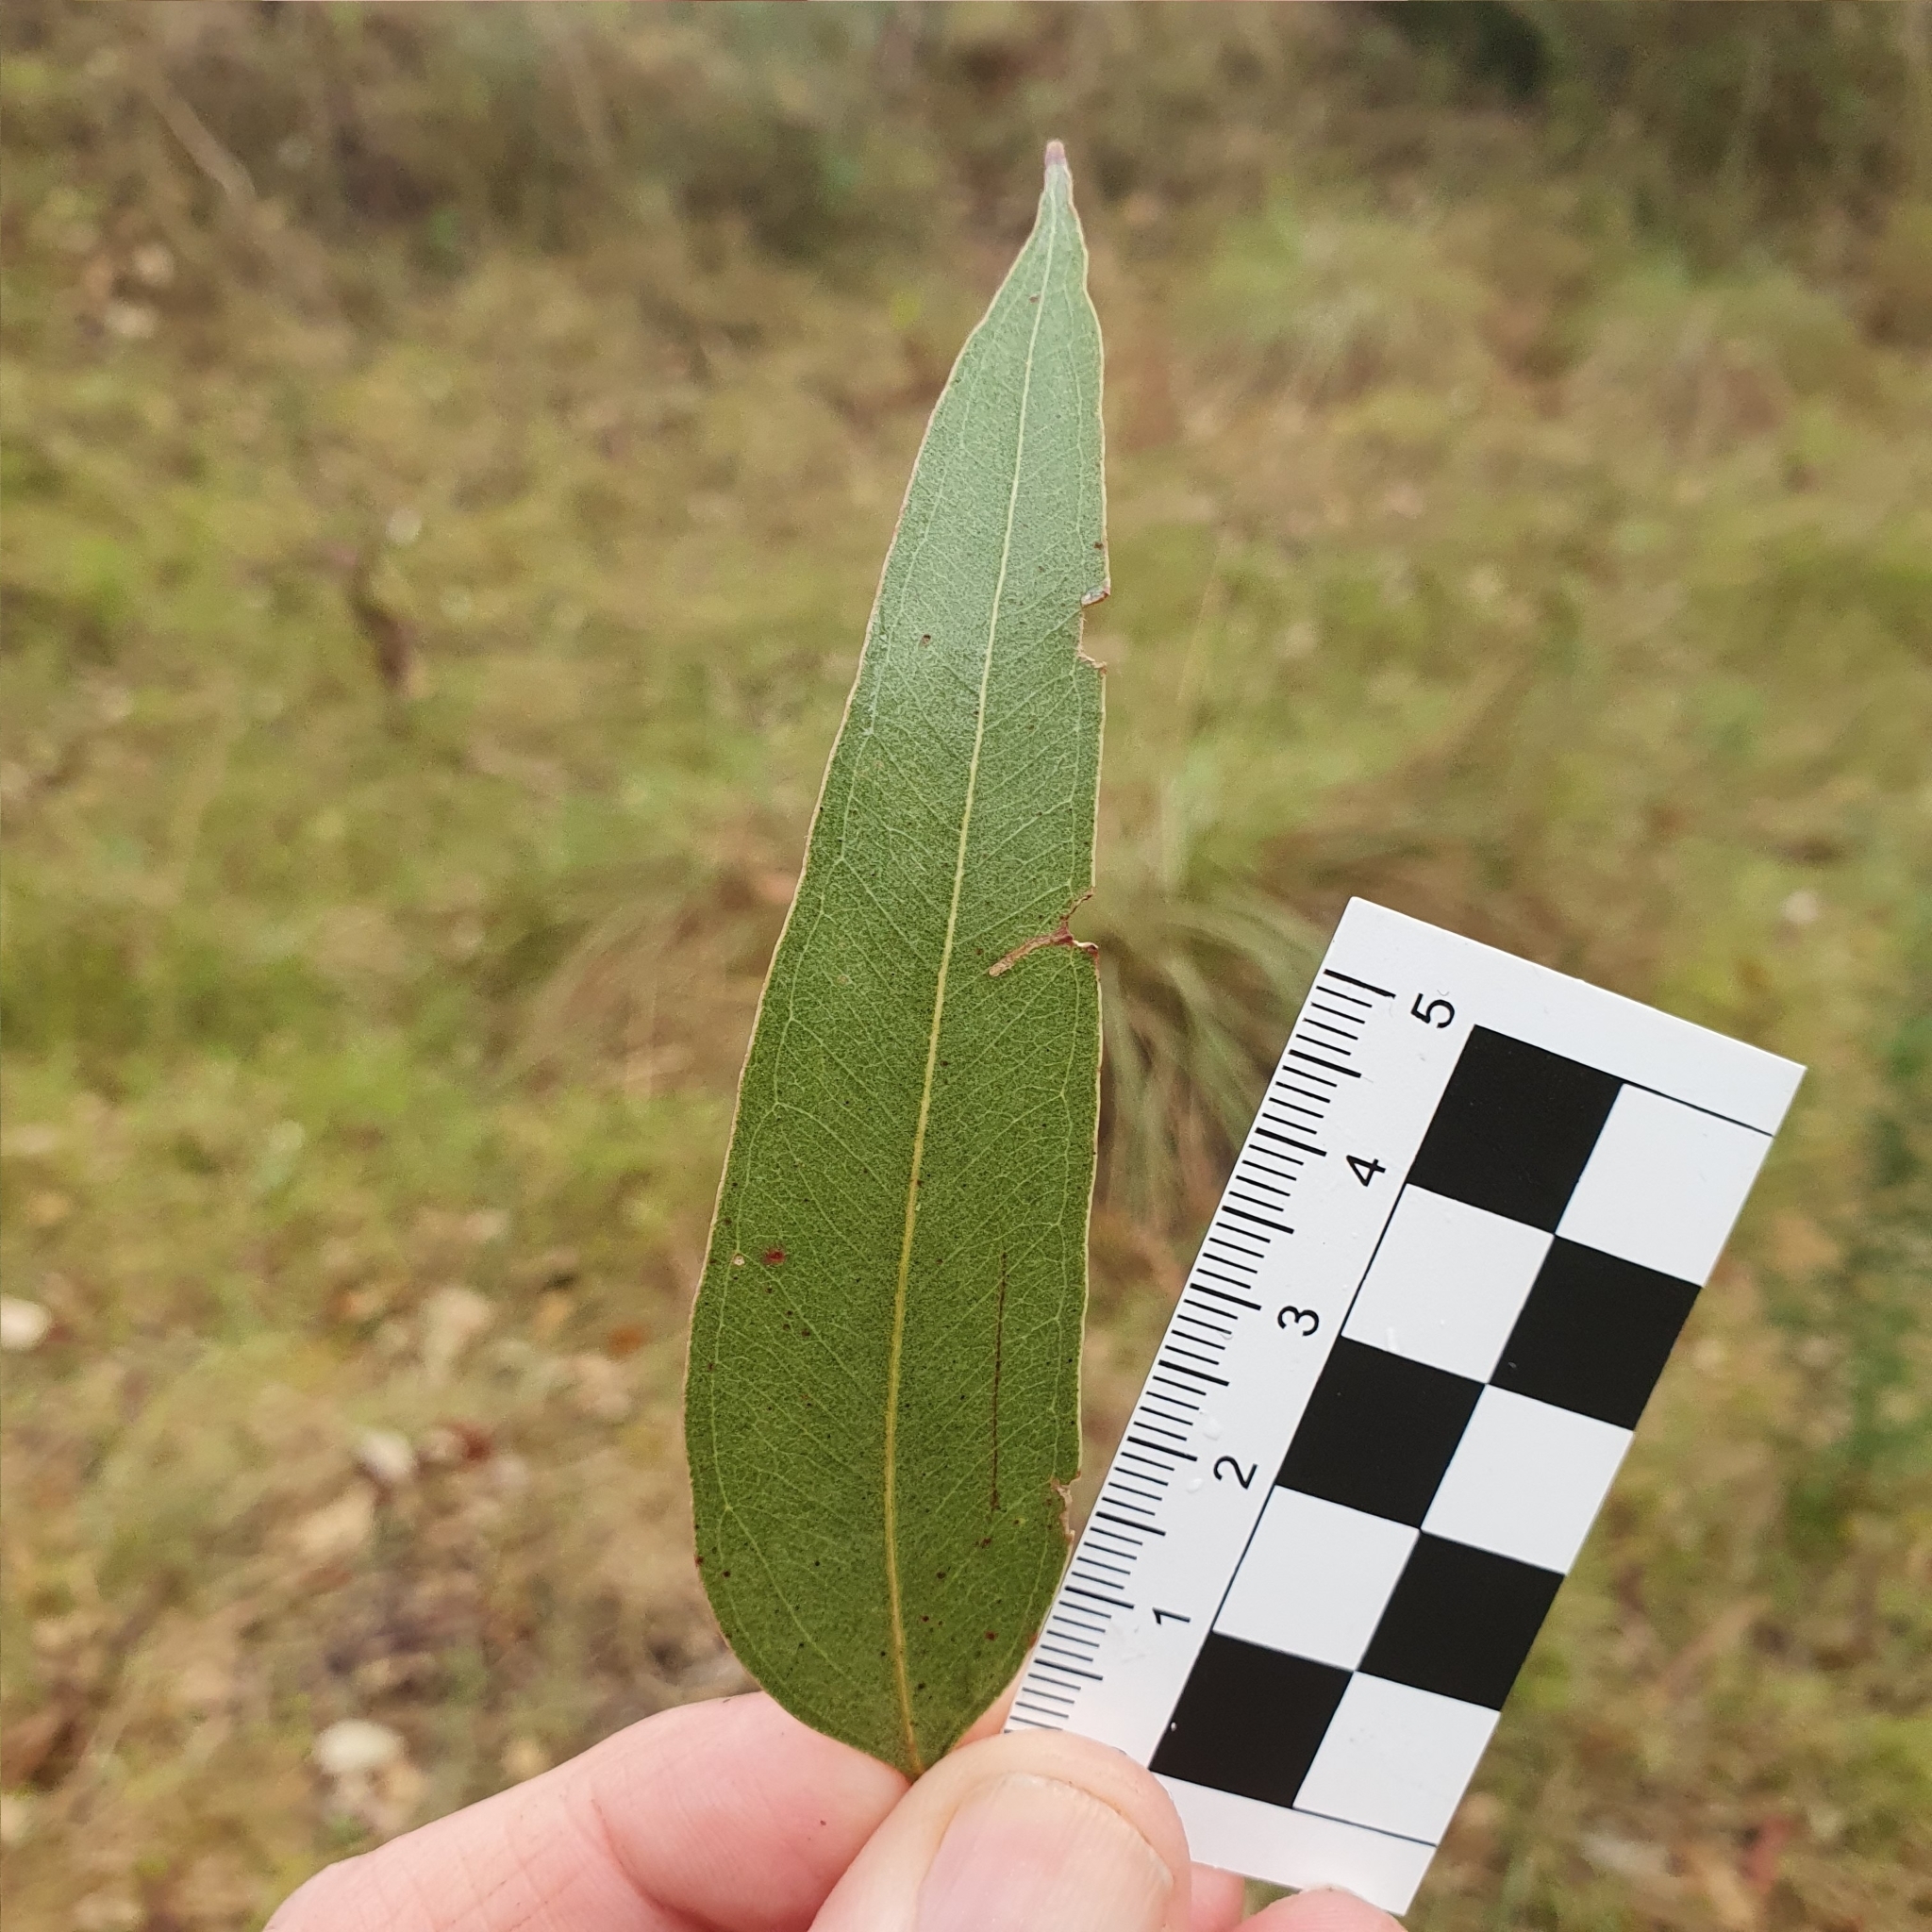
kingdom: Plantae
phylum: Tracheophyta
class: Magnoliopsida
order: Myrtales
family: Myrtaceae
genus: Eucalyptus
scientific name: Eucalyptus tereticornis
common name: Forest redgum
